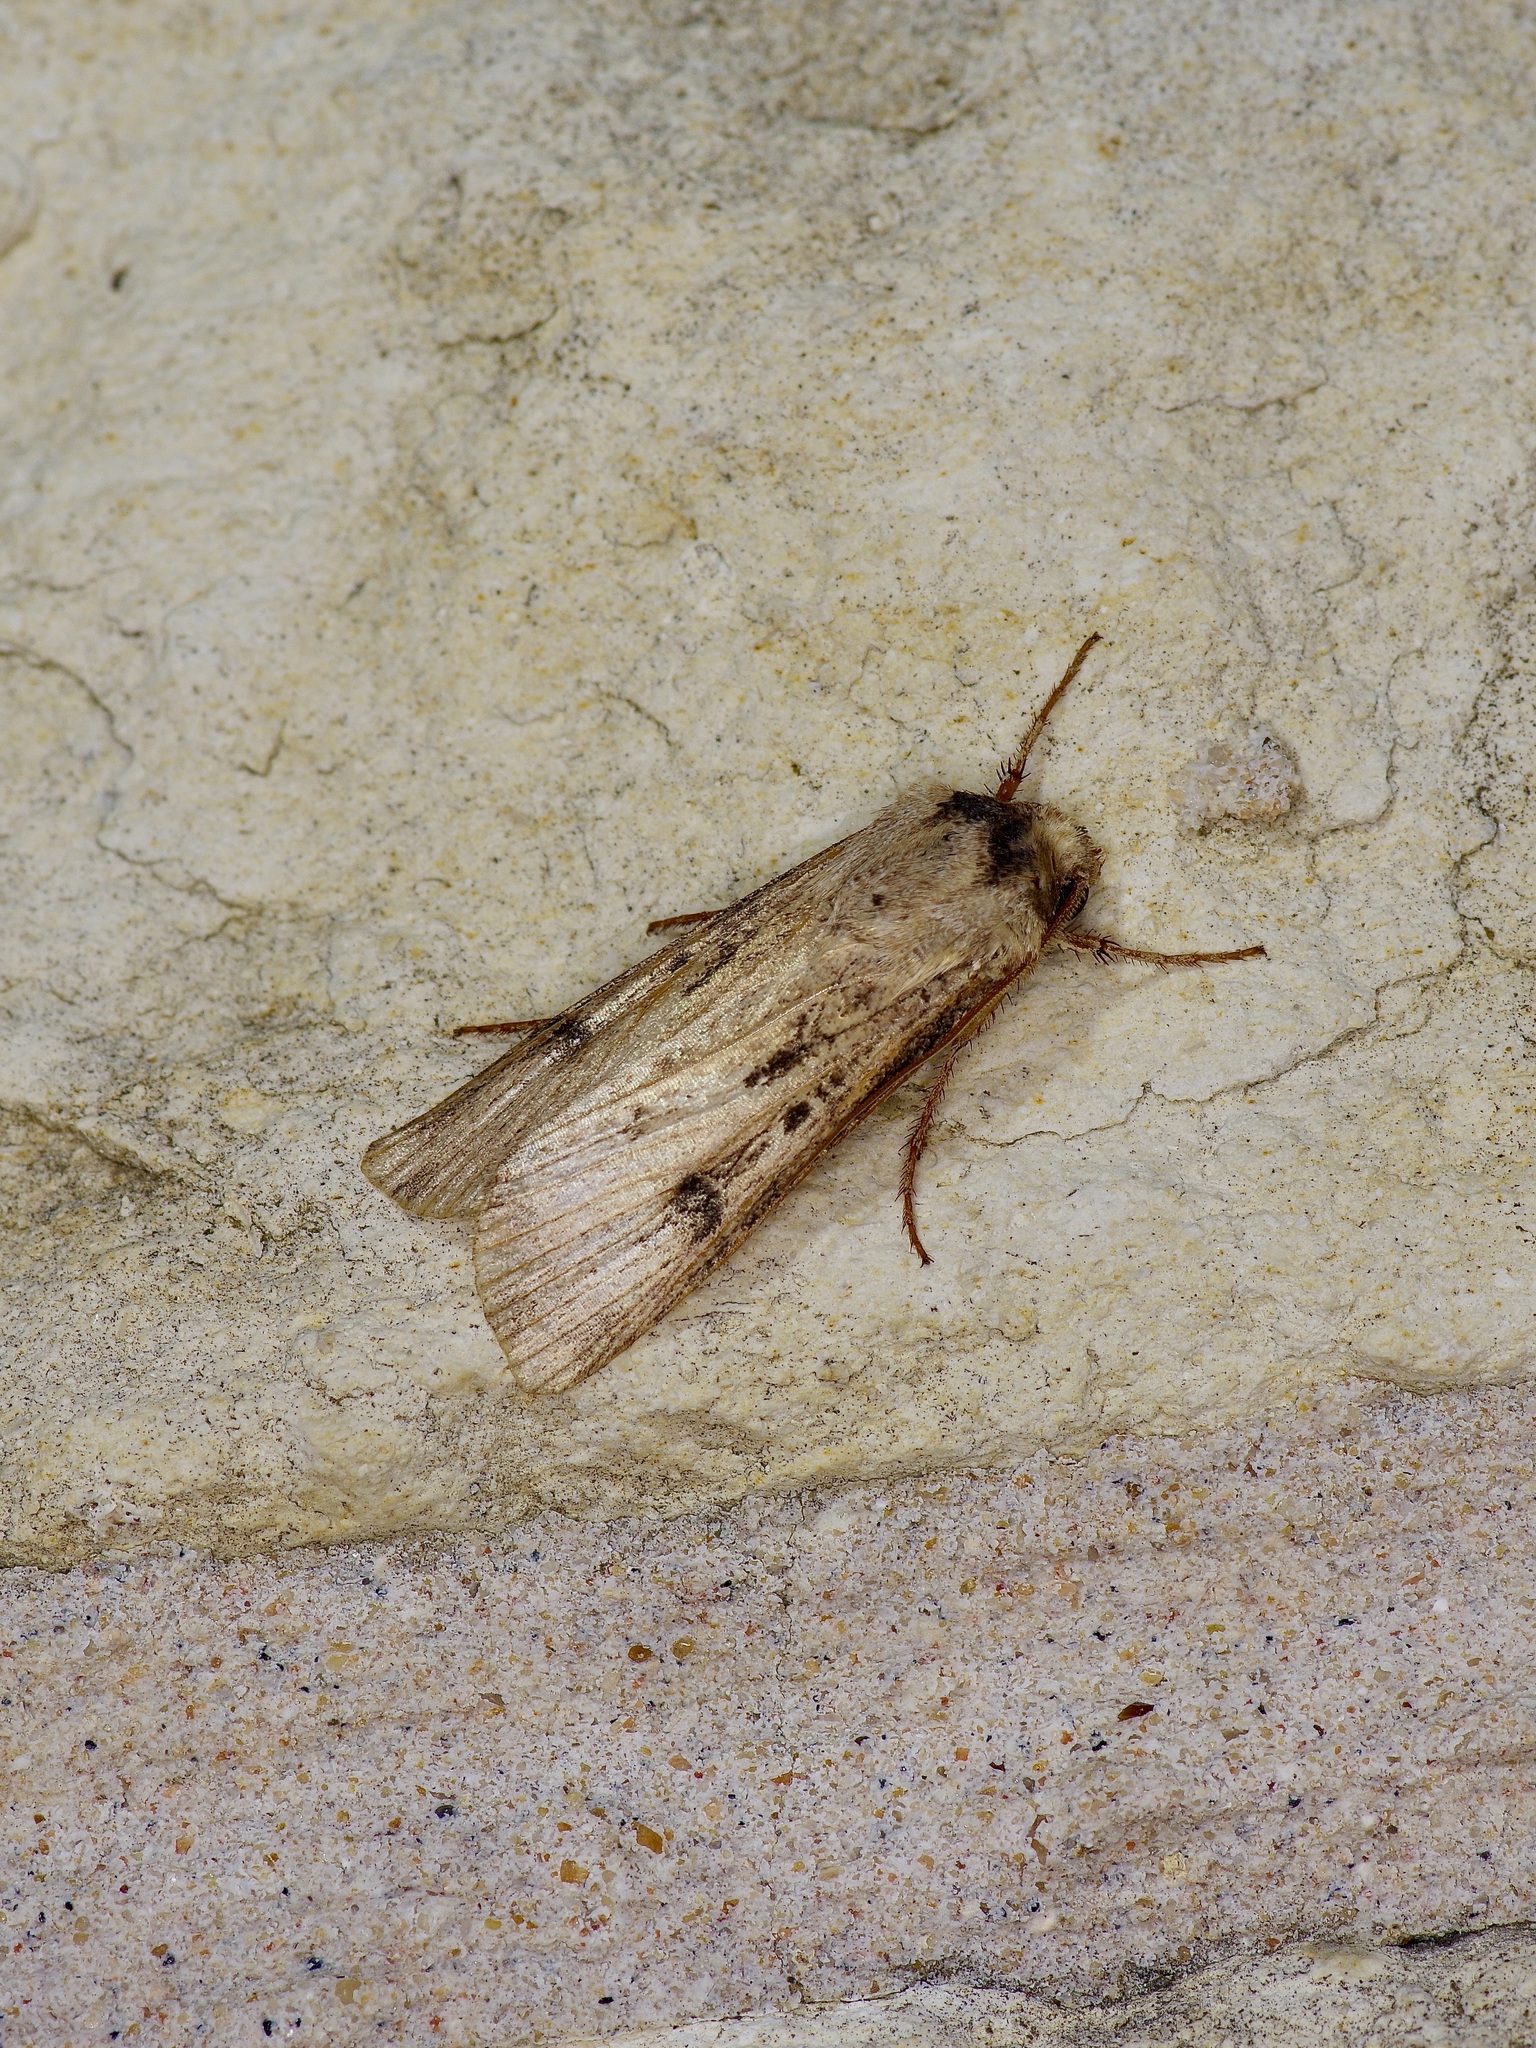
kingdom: Animalia
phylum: Arthropoda
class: Insecta
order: Lepidoptera
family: Noctuidae
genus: Agrotis
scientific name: Agrotis malefida
